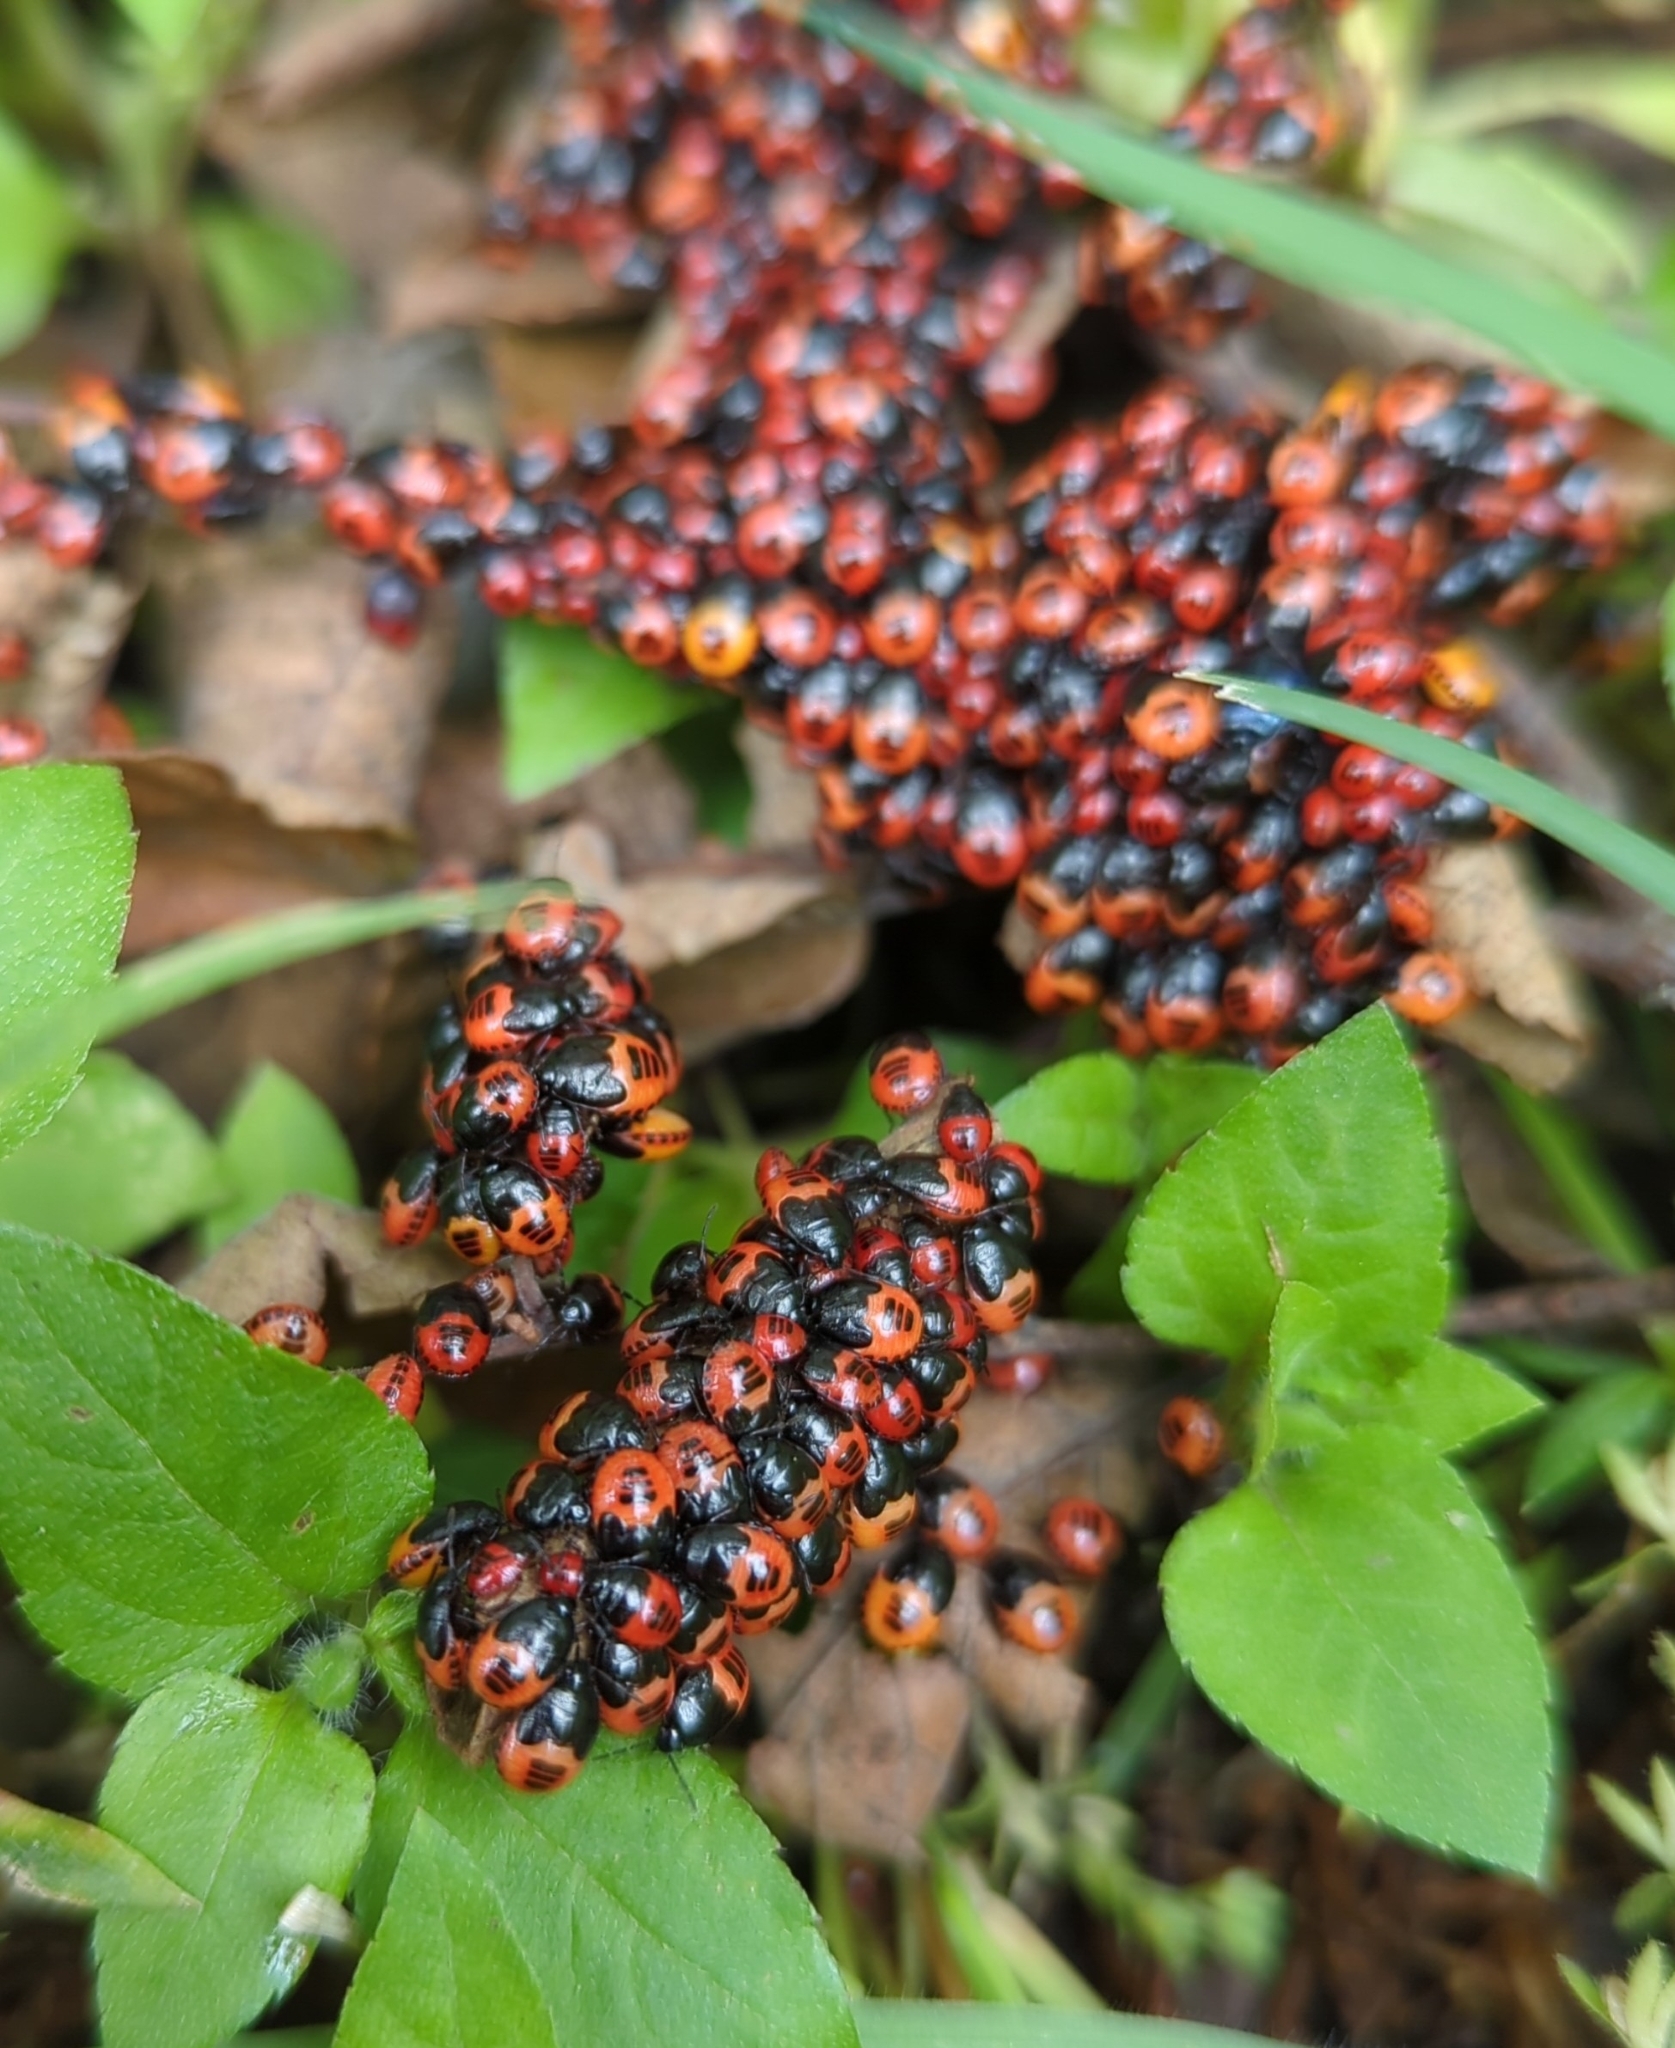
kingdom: Animalia
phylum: Arthropoda
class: Insecta
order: Hemiptera
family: Cydnidae
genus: Sehirus
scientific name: Sehirus cinctus
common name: White-margined burrower bug
